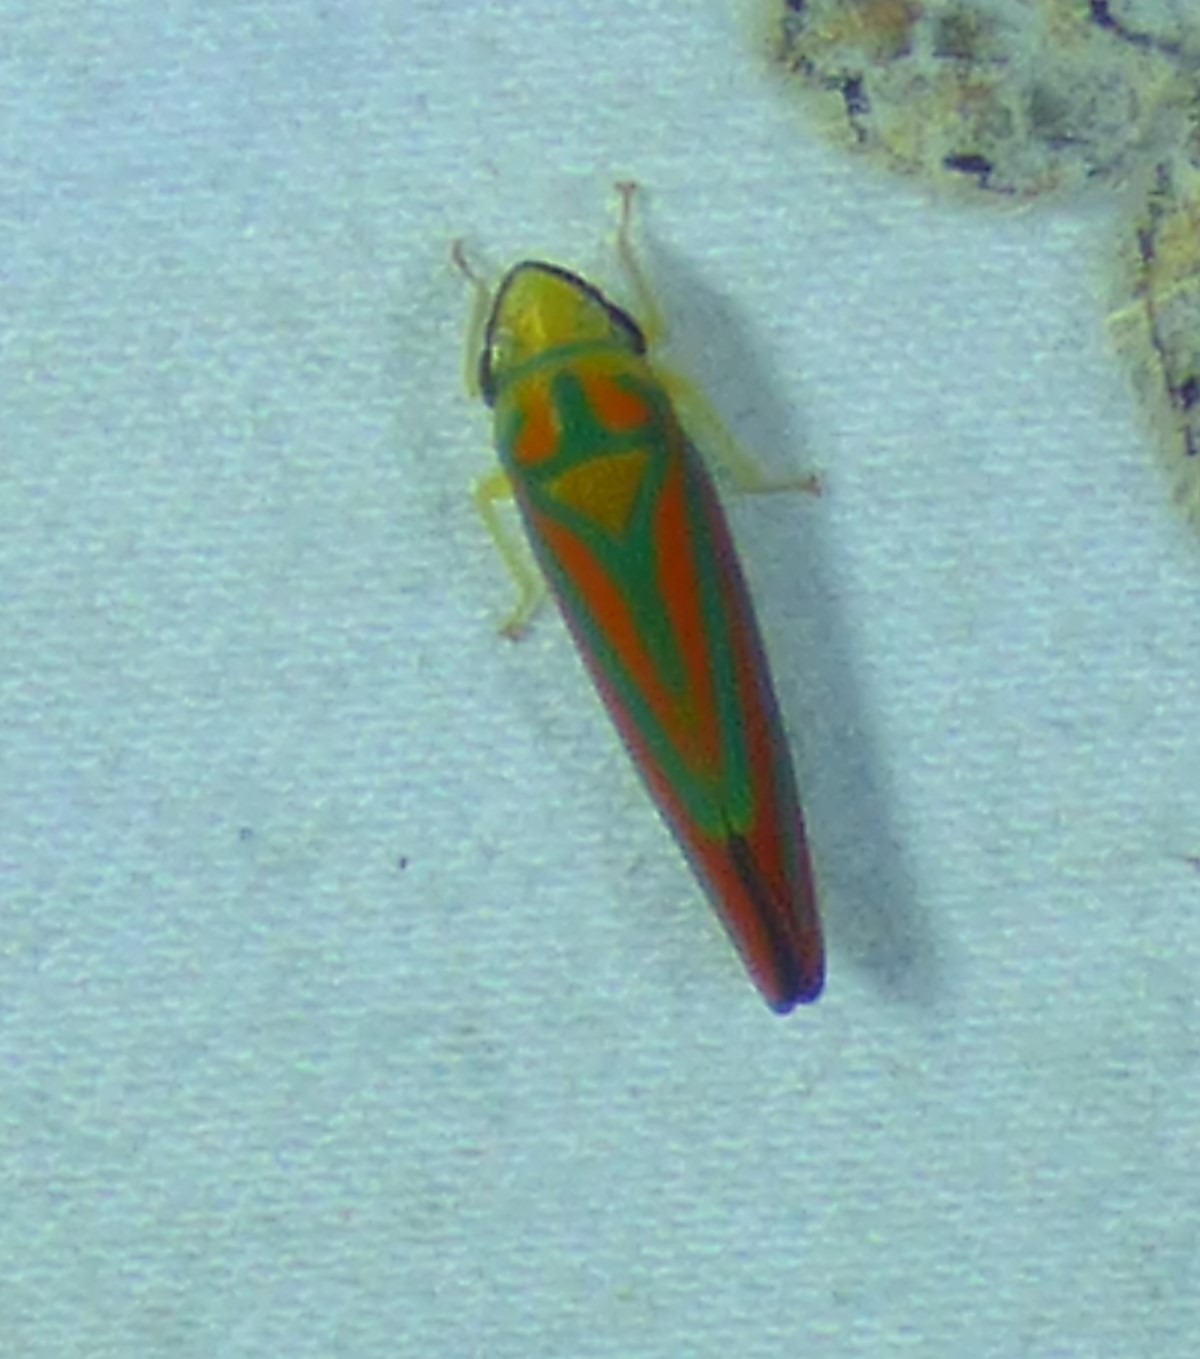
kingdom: Animalia
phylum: Arthropoda
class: Insecta
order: Hemiptera
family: Cicadellidae
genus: Graphocephala
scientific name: Graphocephala coccinea
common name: Candy-striped leafhopper
